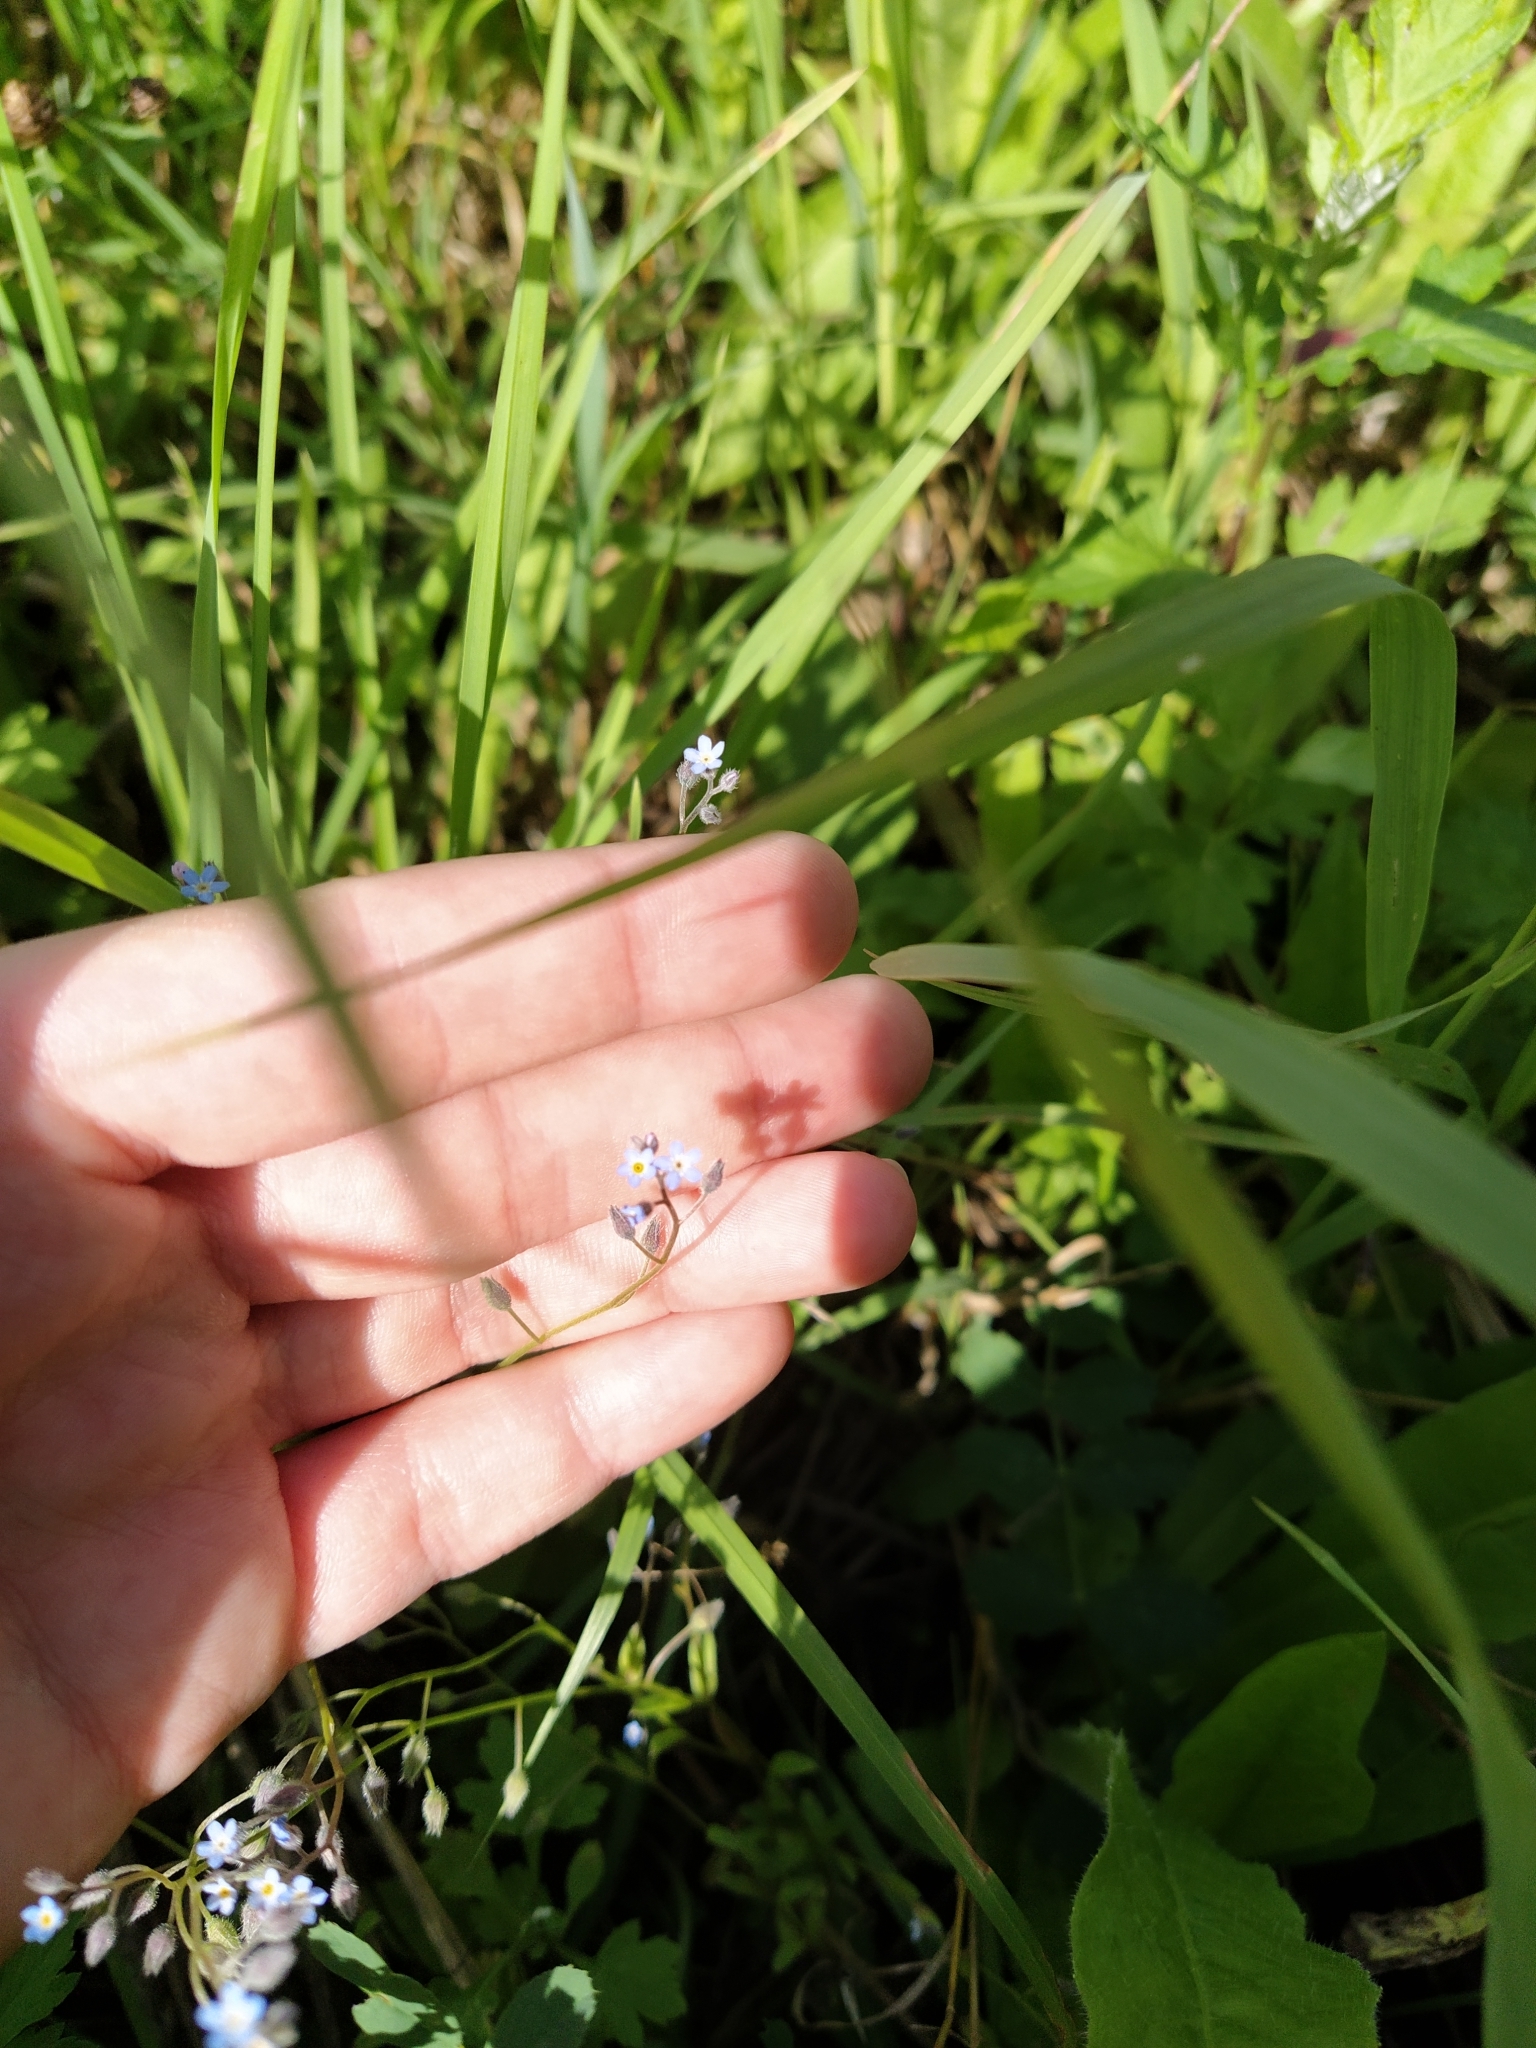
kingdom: Plantae
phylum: Tracheophyta
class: Magnoliopsida
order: Boraginales
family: Boraginaceae
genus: Myosotis
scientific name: Myosotis arvensis
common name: Field forget-me-not
